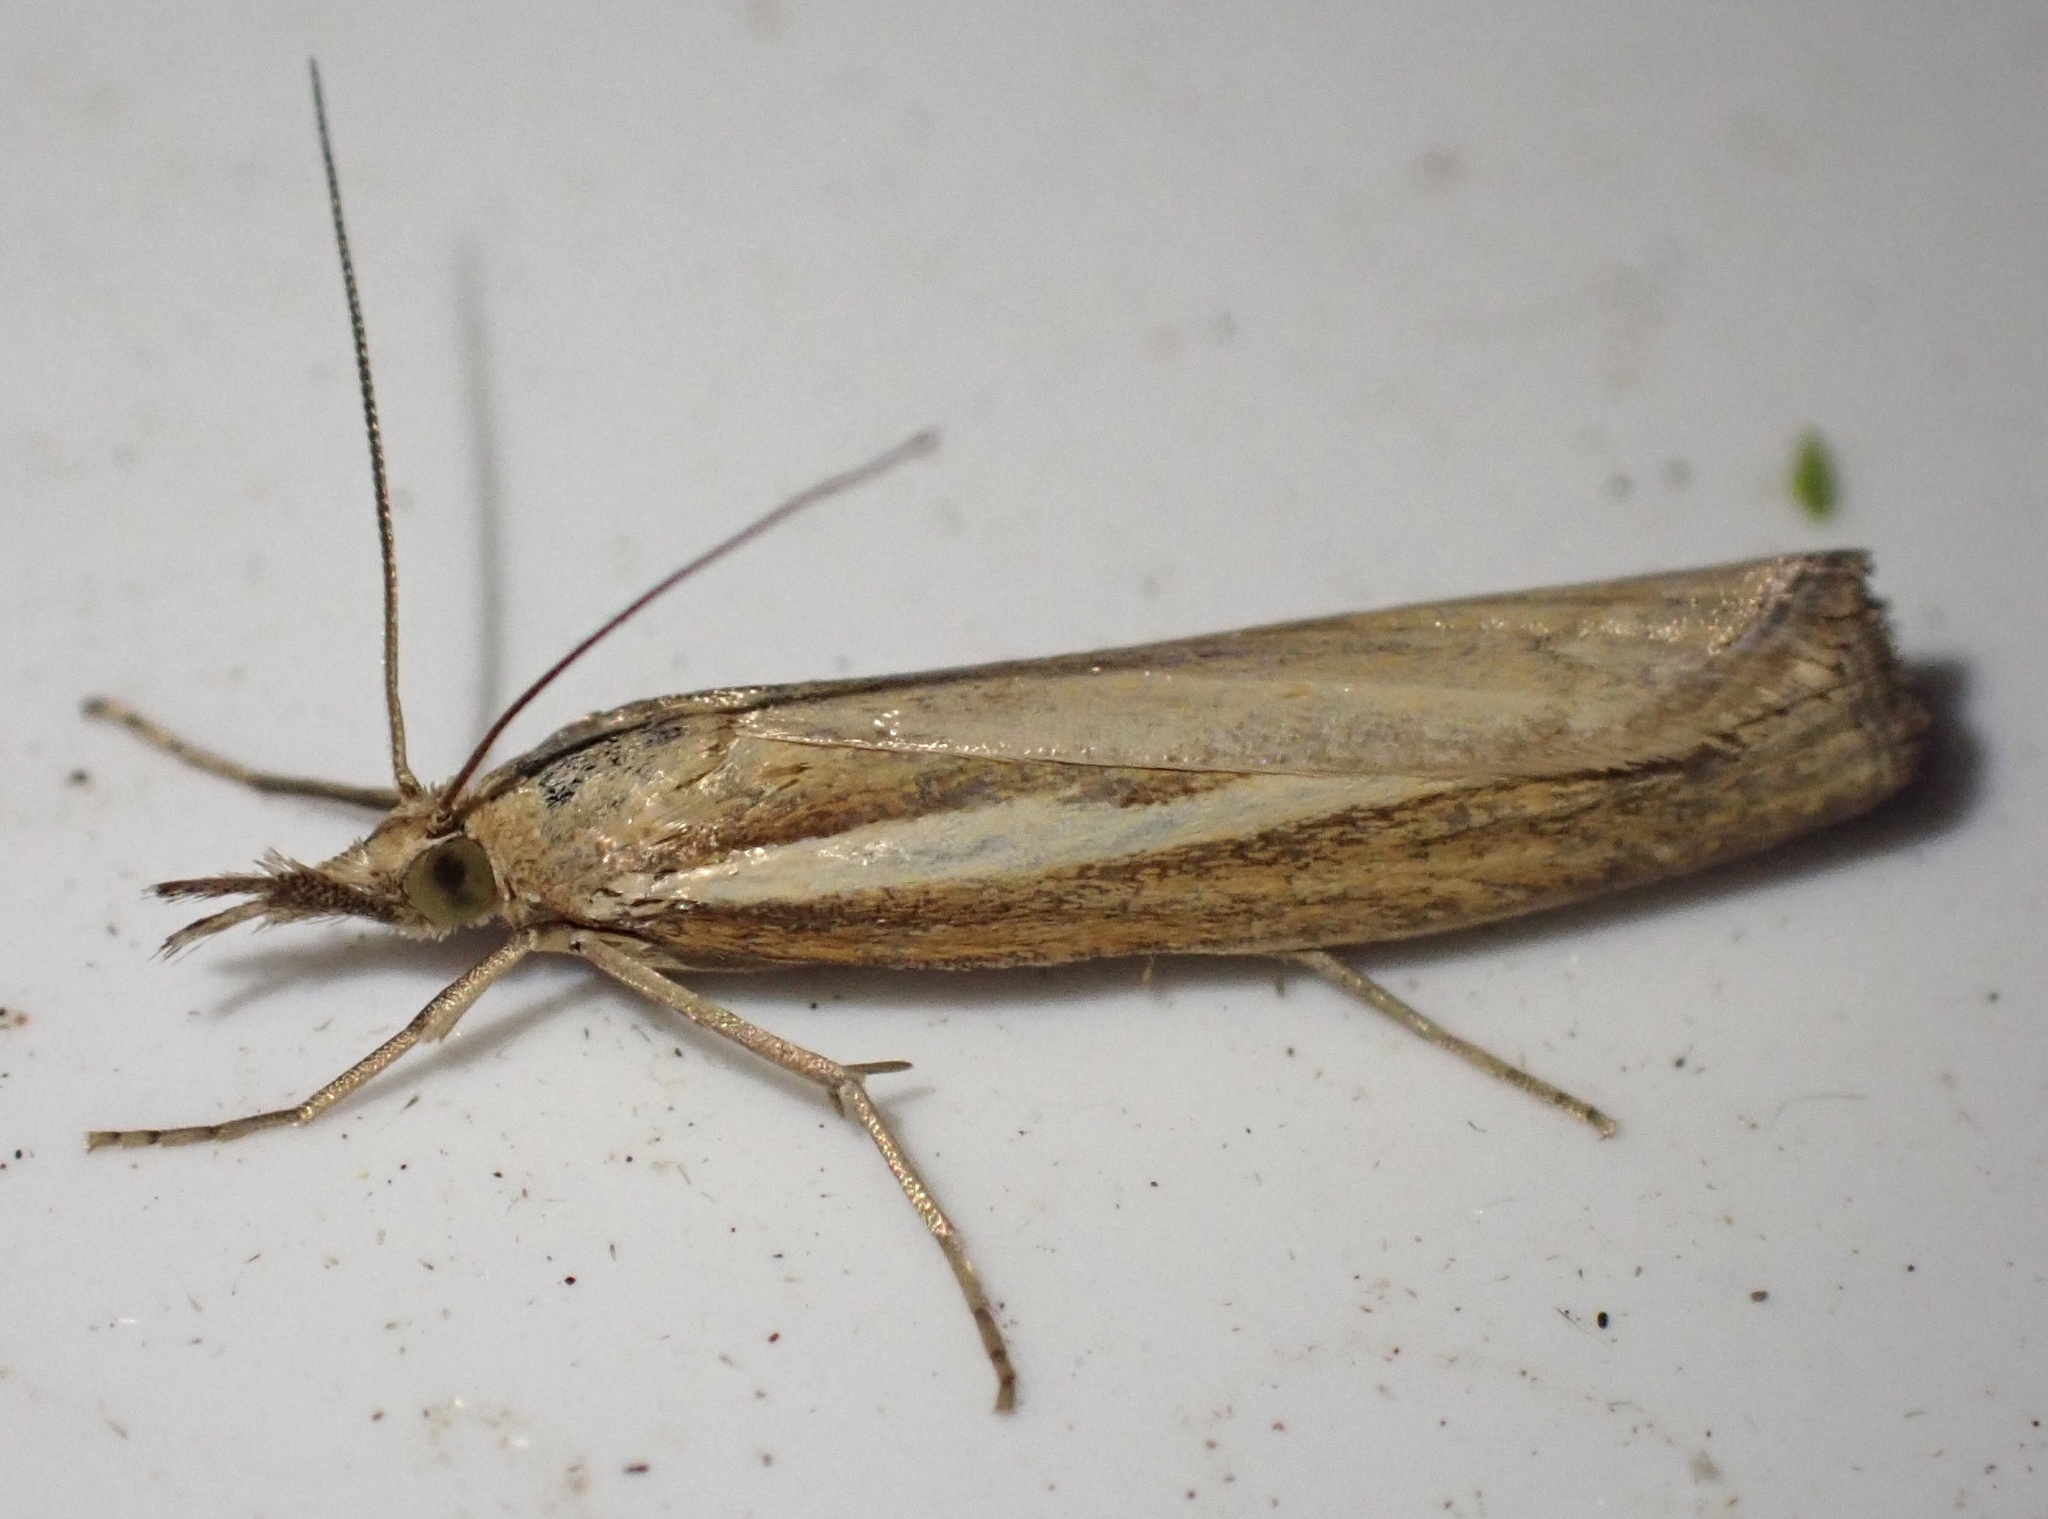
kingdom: Animalia
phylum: Arthropoda
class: Insecta
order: Lepidoptera
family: Crambidae
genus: Agriphila
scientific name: Agriphila tristellus
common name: Common grass-veneer
